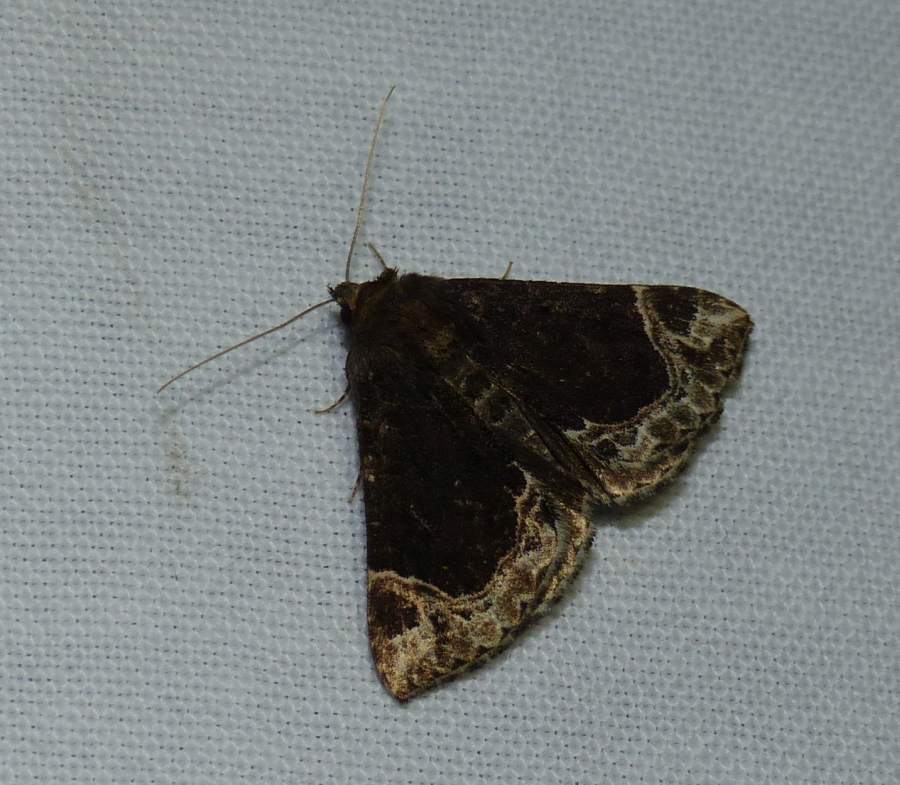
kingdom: Animalia
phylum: Arthropoda
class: Insecta
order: Lepidoptera
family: Erebidae
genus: Hypena
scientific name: Hypena abalienalis
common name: White-lined snout
